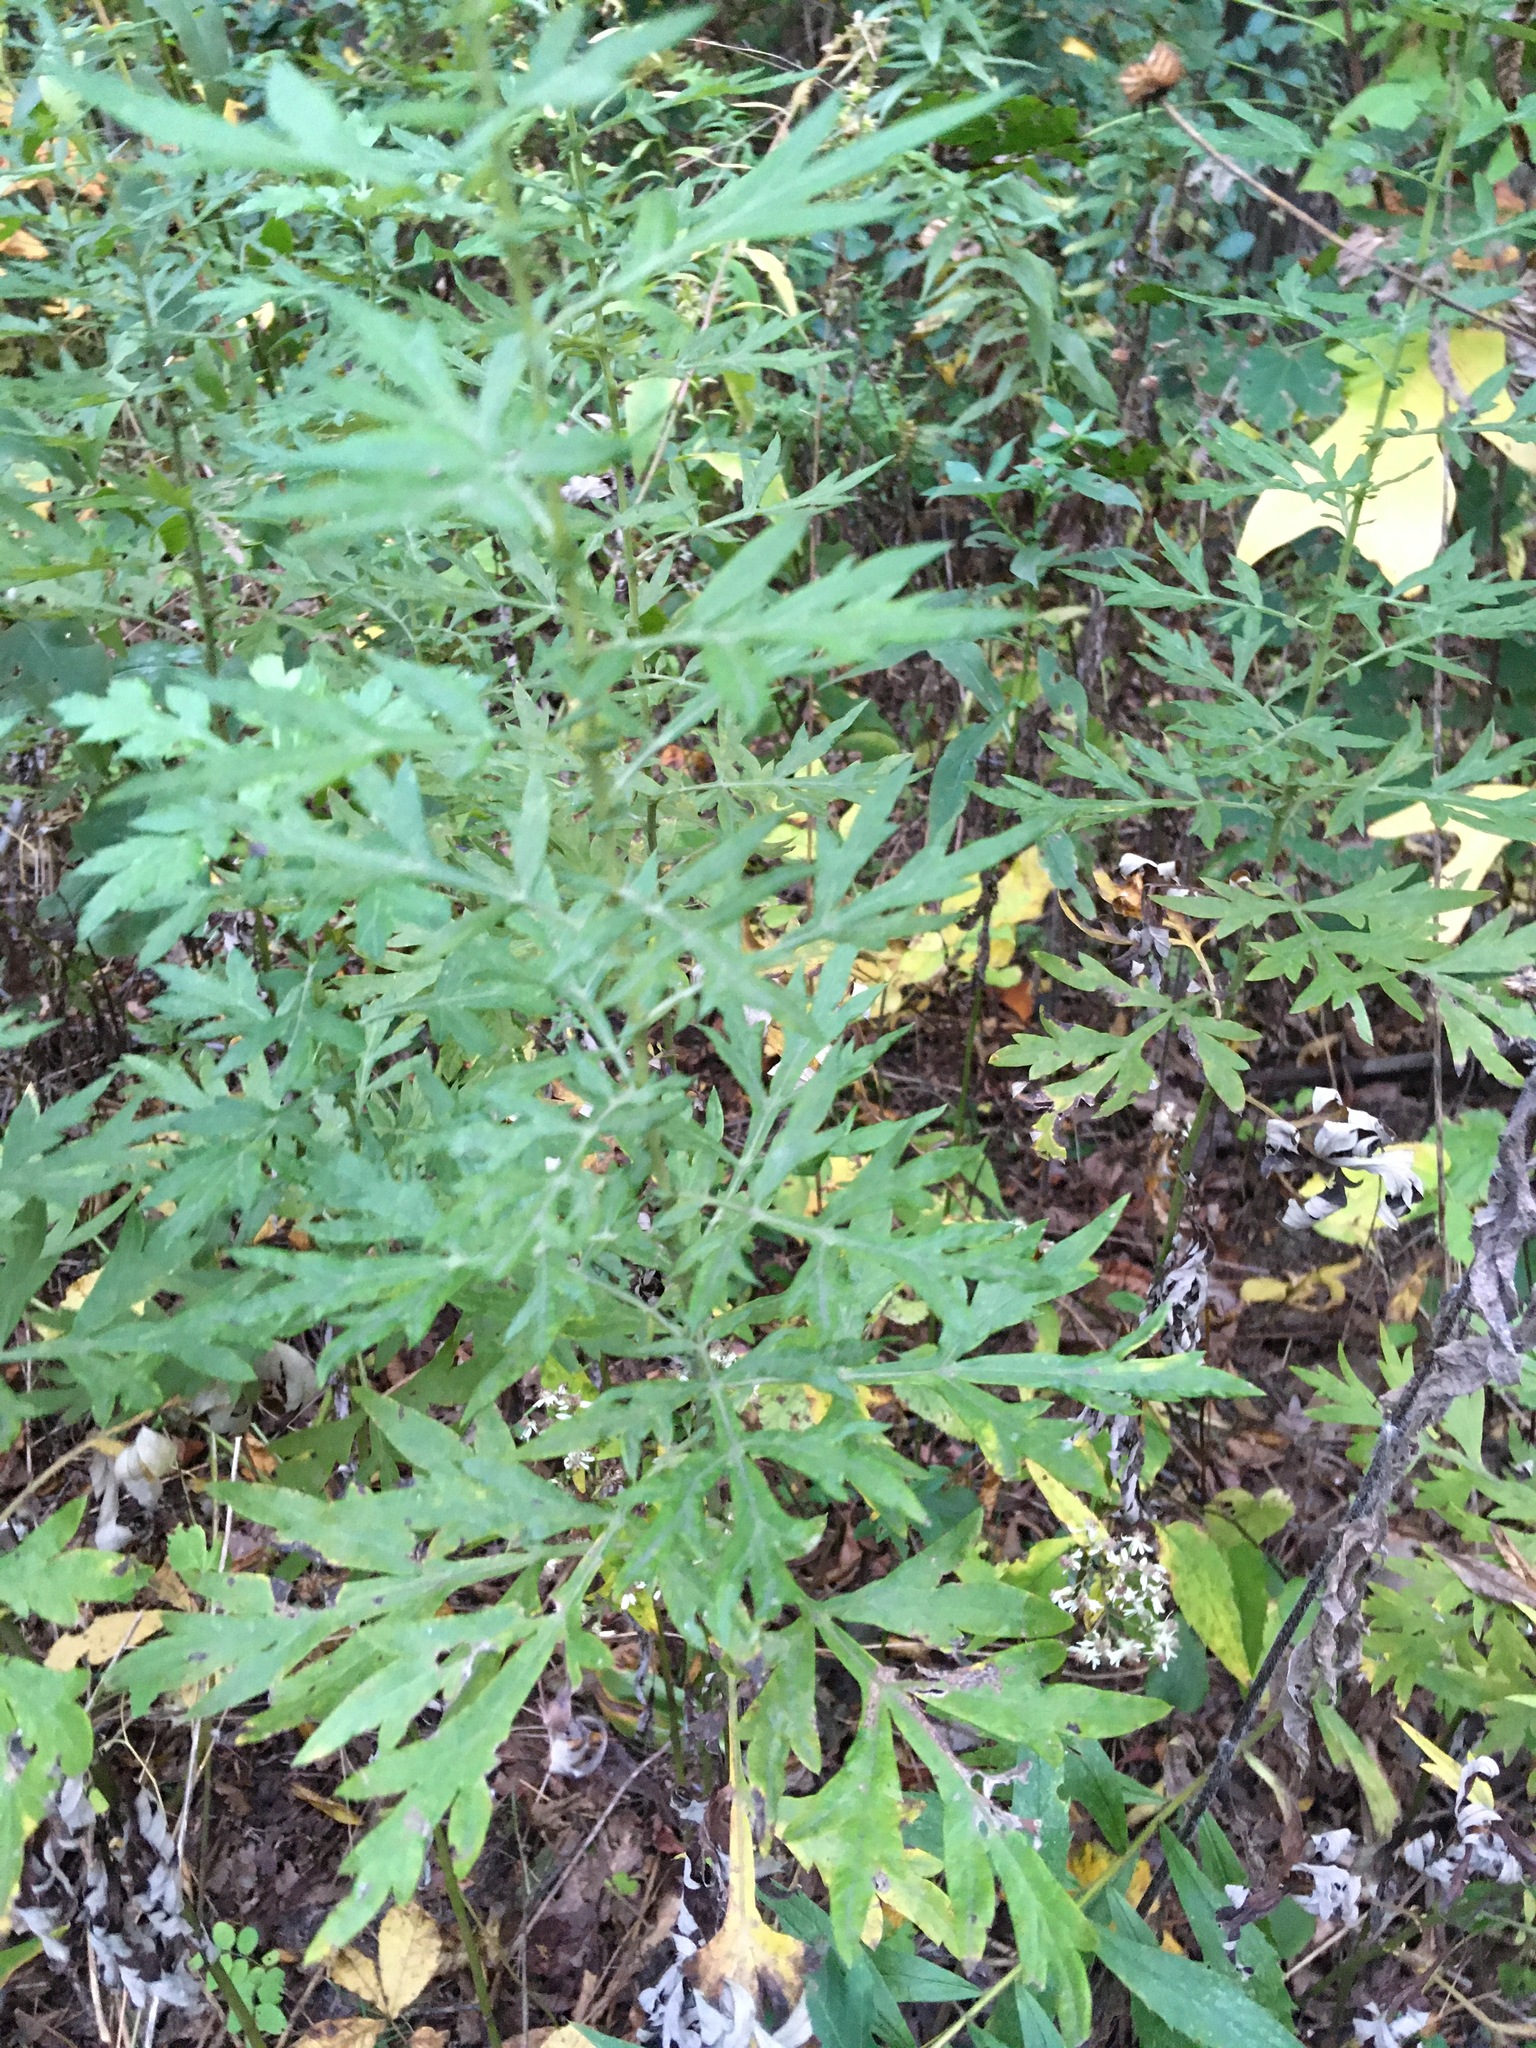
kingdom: Plantae
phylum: Tracheophyta
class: Magnoliopsida
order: Asterales
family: Asteraceae
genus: Artemisia
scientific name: Artemisia vulgaris
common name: Mugwort
